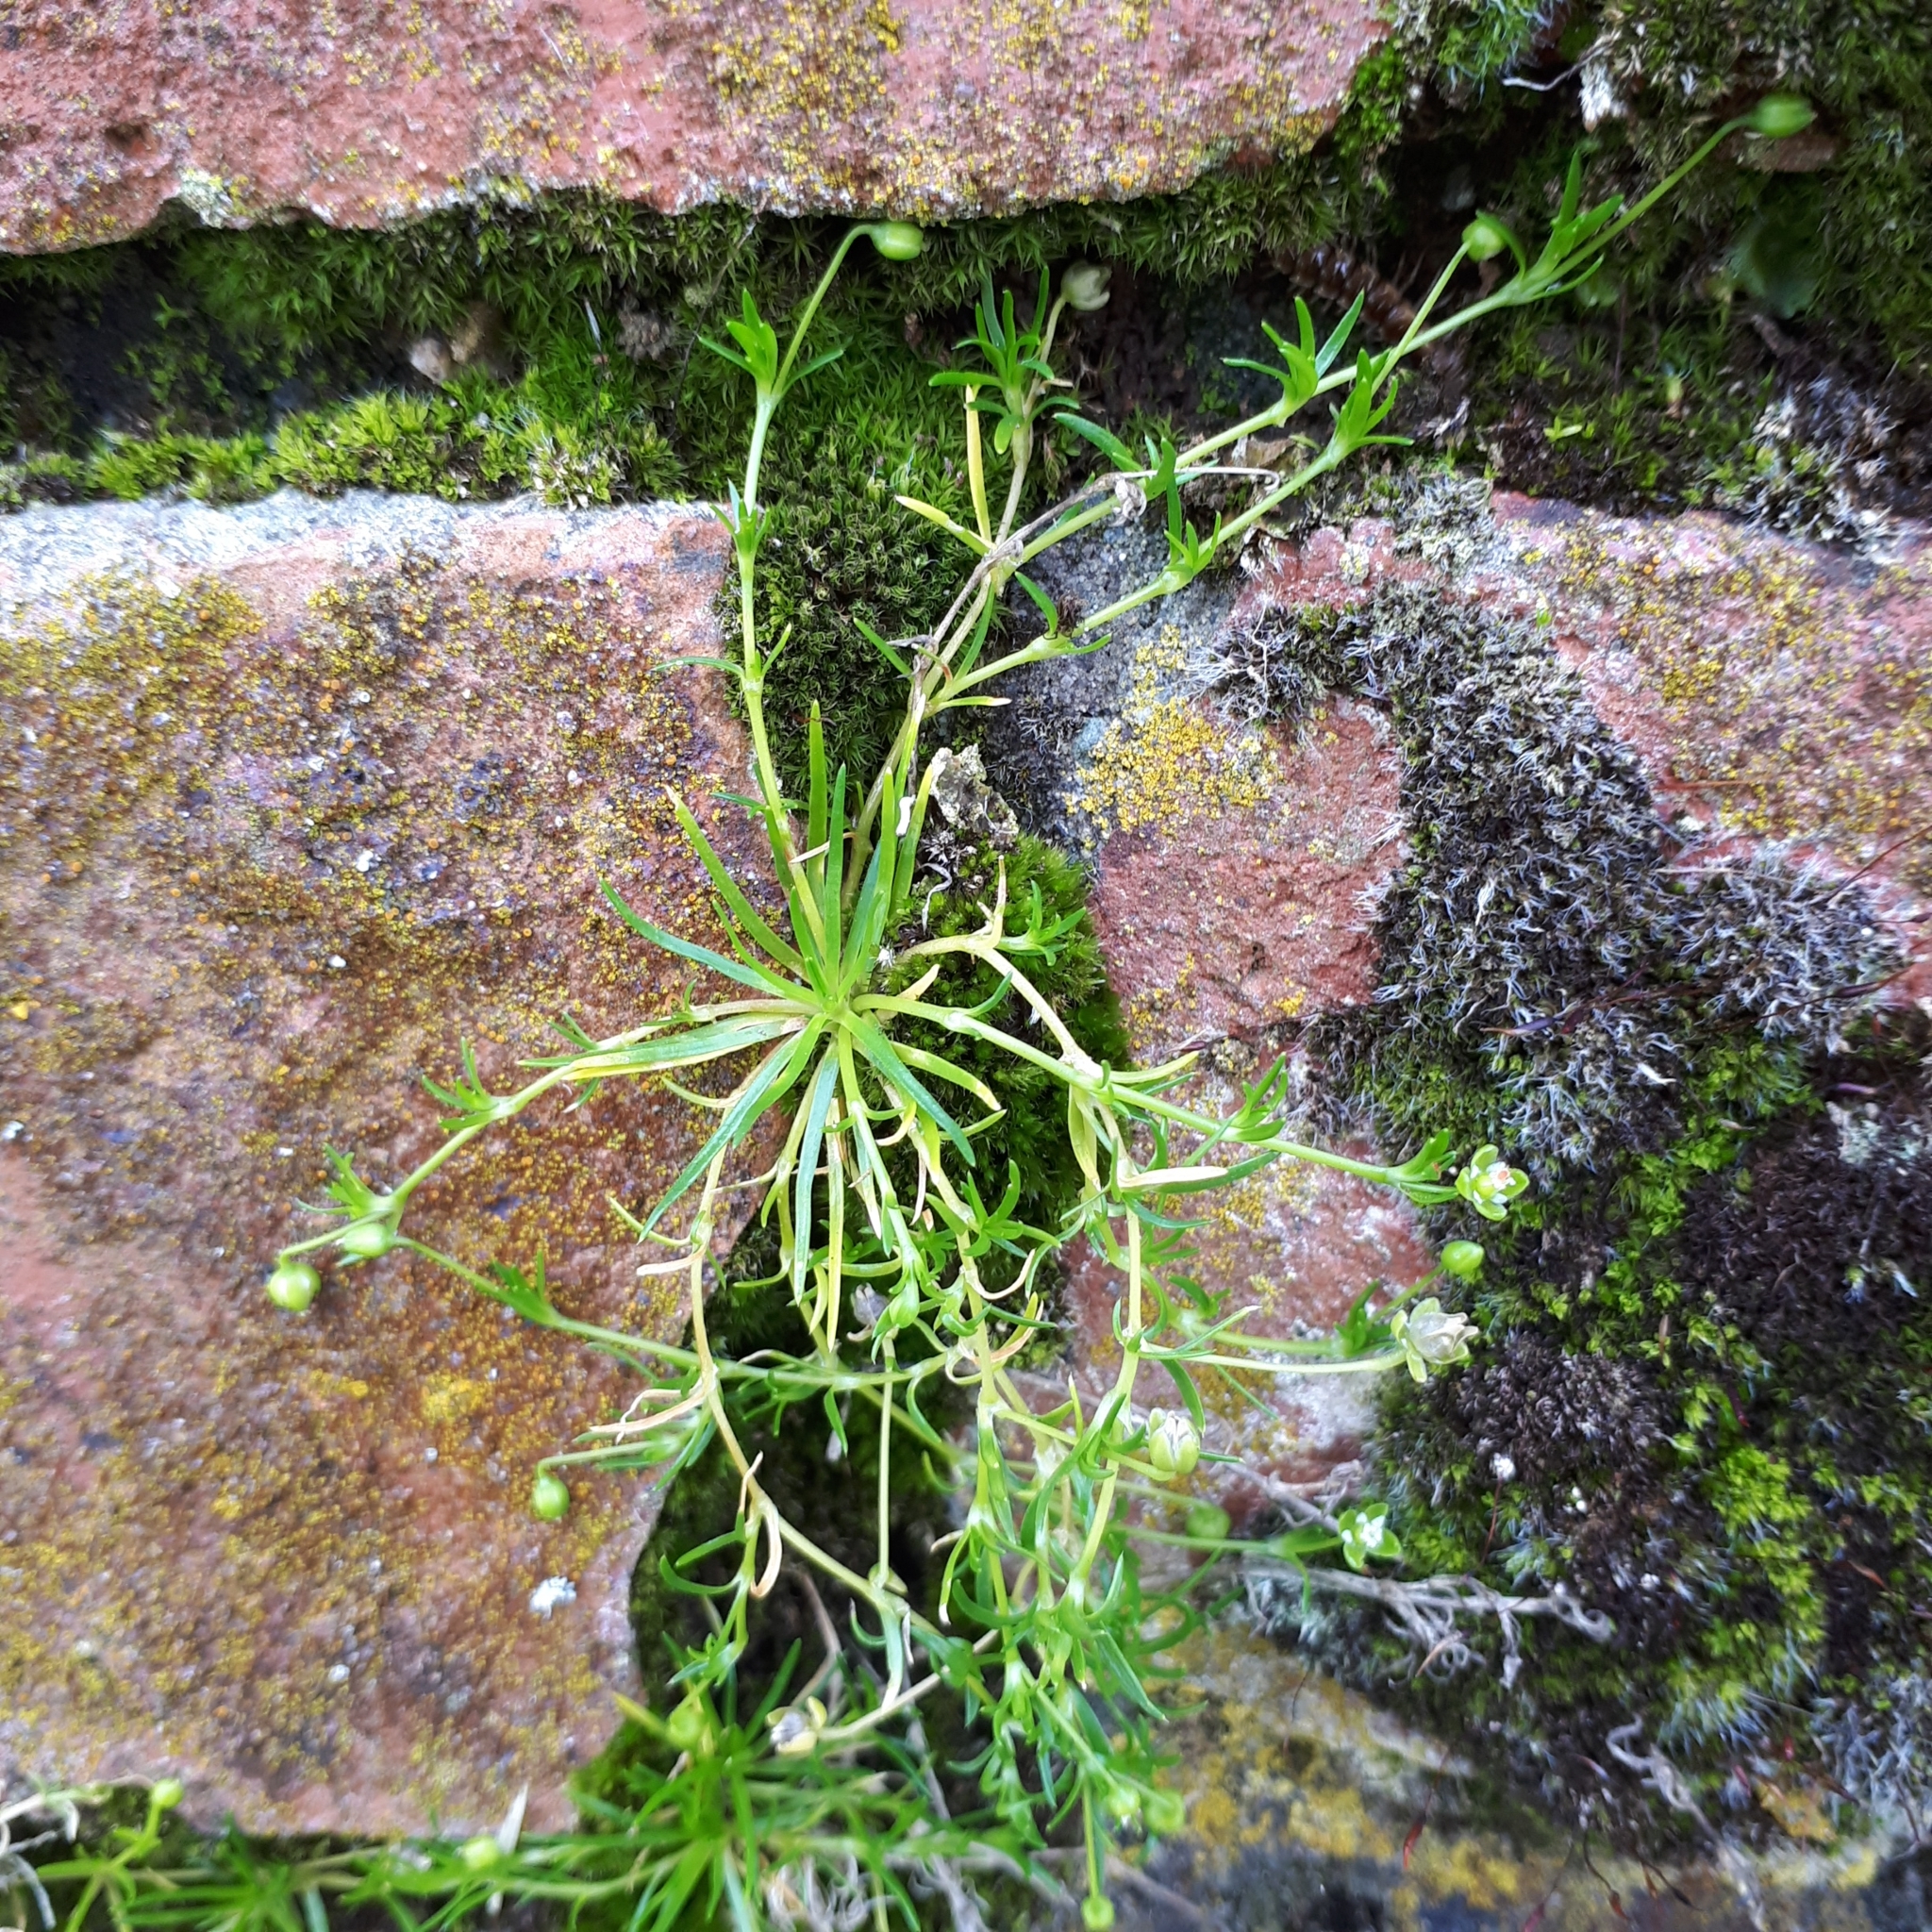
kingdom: Plantae
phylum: Tracheophyta
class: Magnoliopsida
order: Caryophyllales
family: Caryophyllaceae
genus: Sagina
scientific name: Sagina procumbens
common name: Procumbent pearlwort
